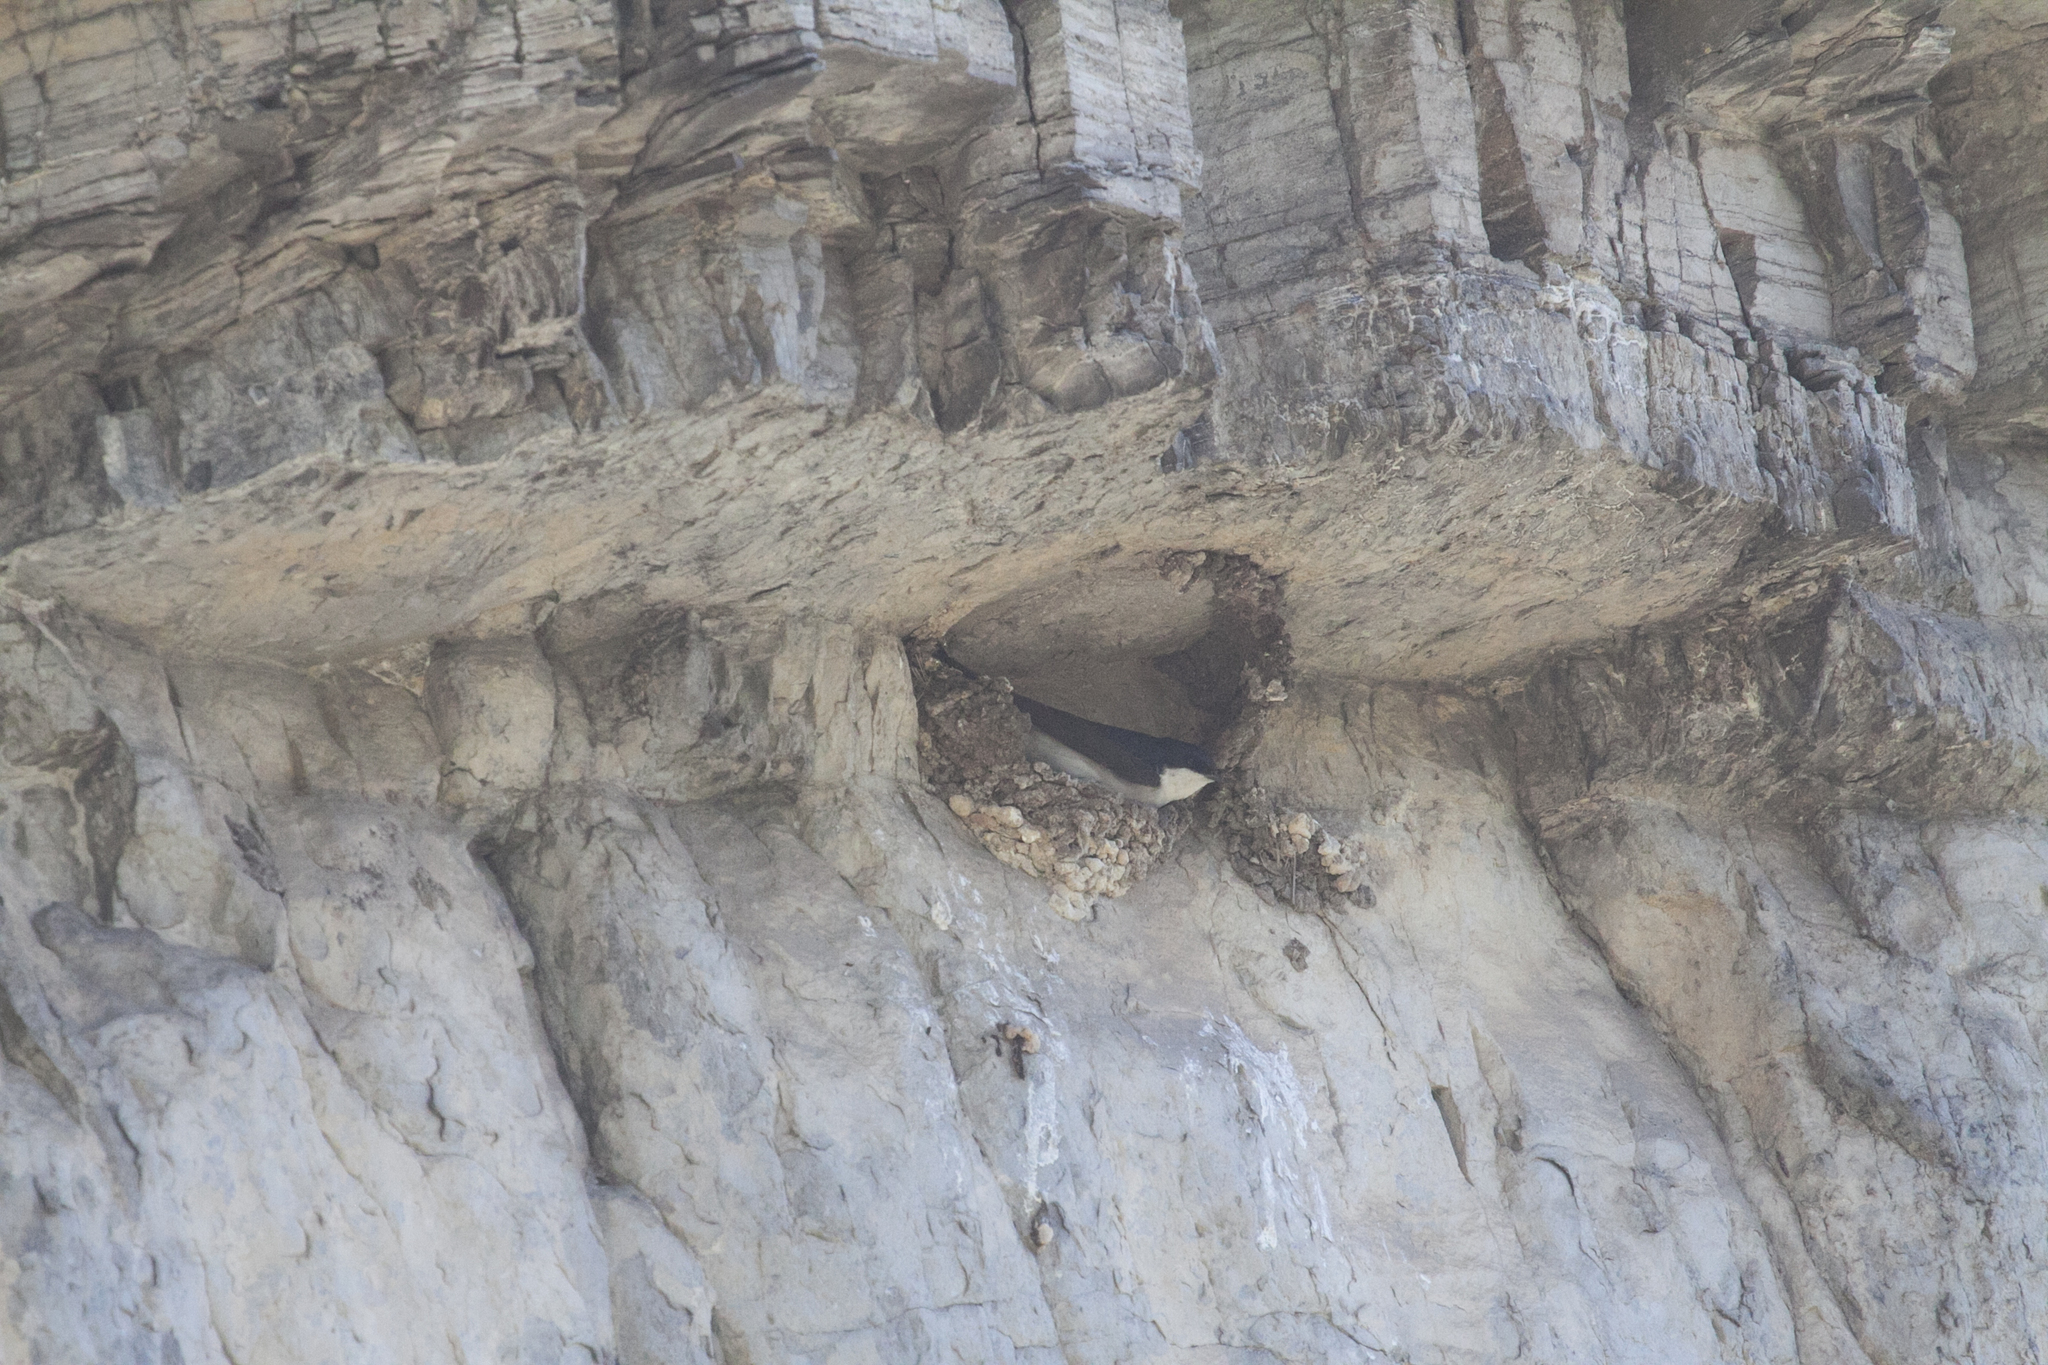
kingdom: Animalia
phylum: Chordata
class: Aves
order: Passeriformes
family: Hirundinidae
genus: Delichon
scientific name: Delichon urbicum
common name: Common house martin
